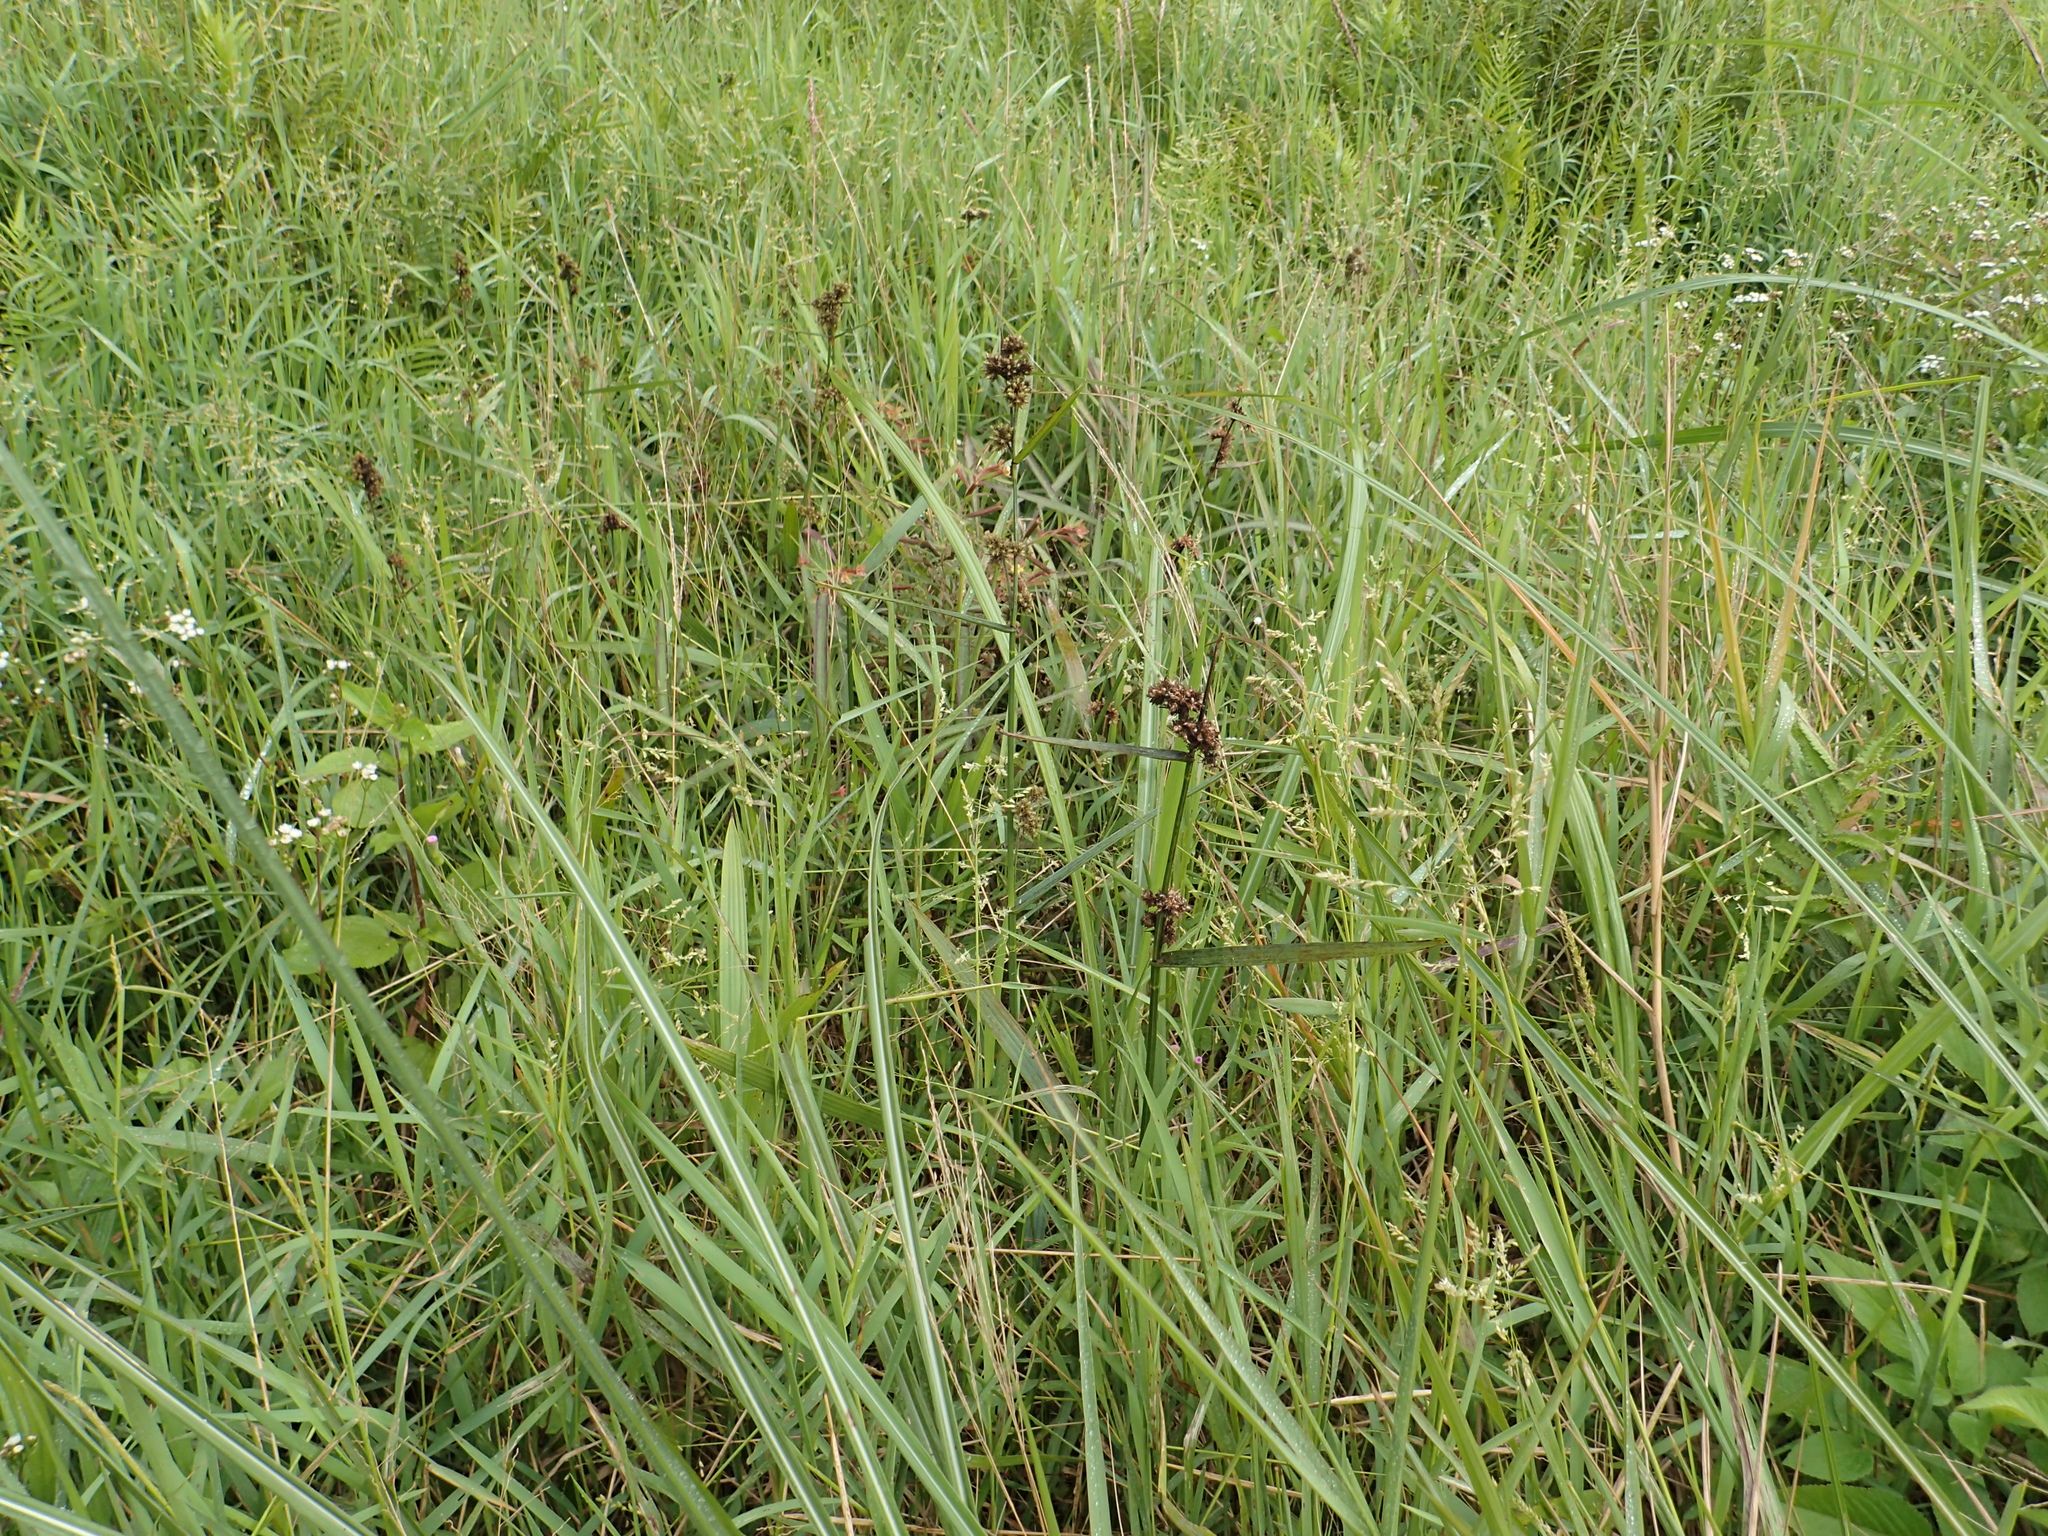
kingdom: Plantae
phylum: Tracheophyta
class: Liliopsida
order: Poales
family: Cyperaceae
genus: Fuirena
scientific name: Fuirena ciliaris
